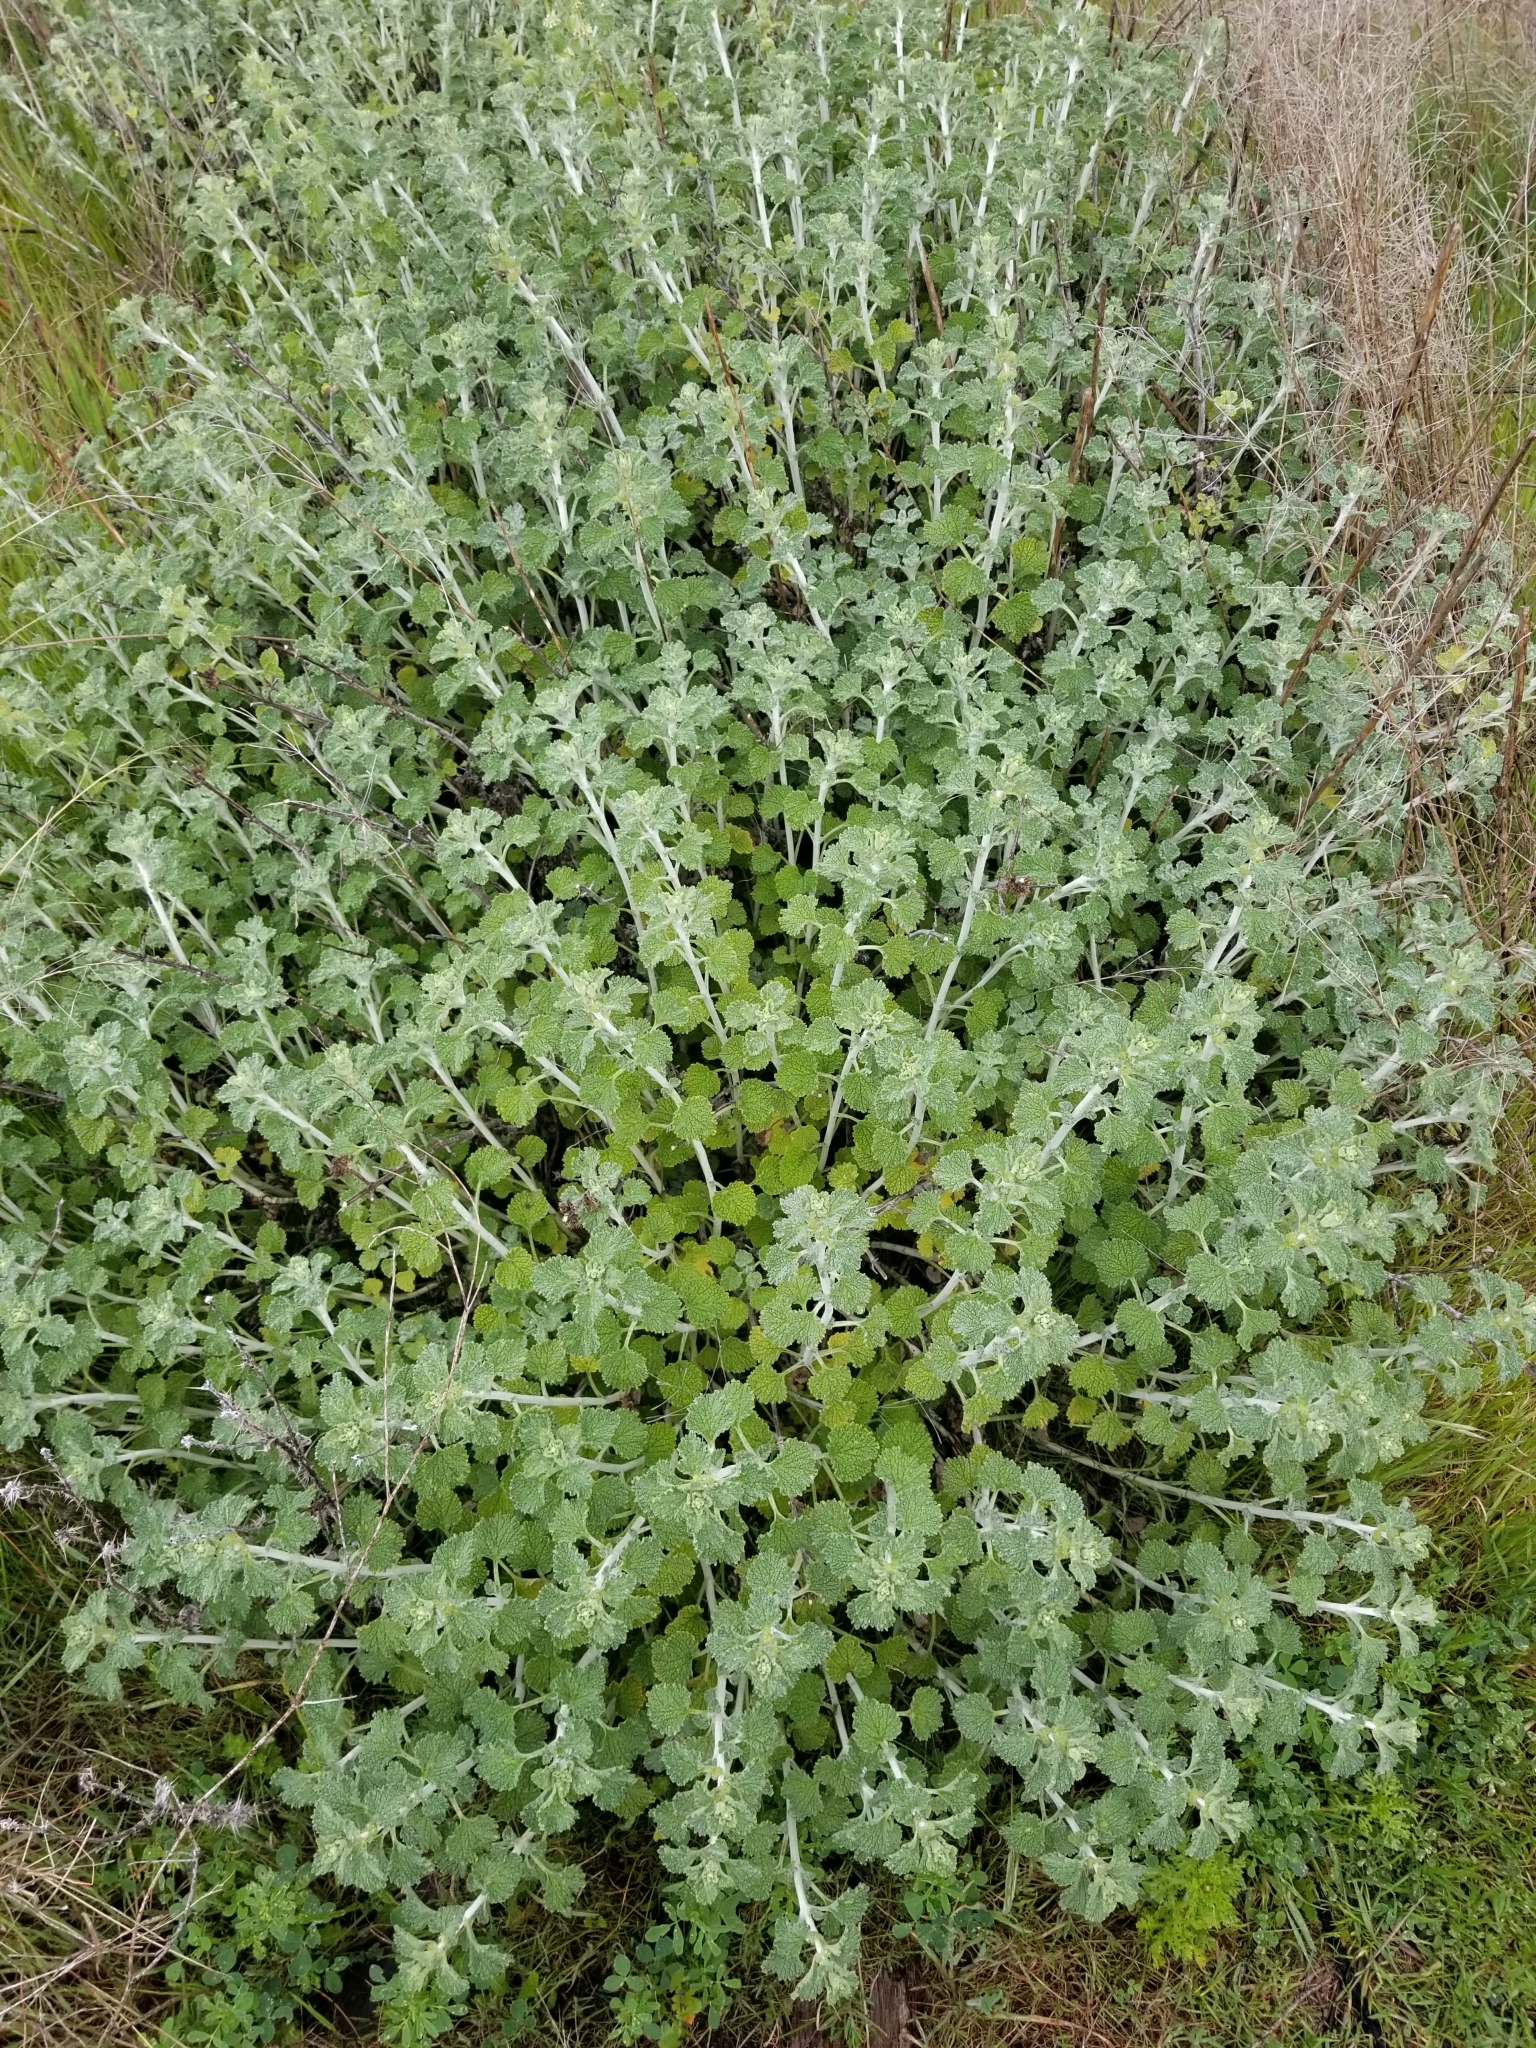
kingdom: Plantae
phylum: Tracheophyta
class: Magnoliopsida
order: Lamiales
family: Lamiaceae
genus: Marrubium
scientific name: Marrubium vulgare
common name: Horehound
